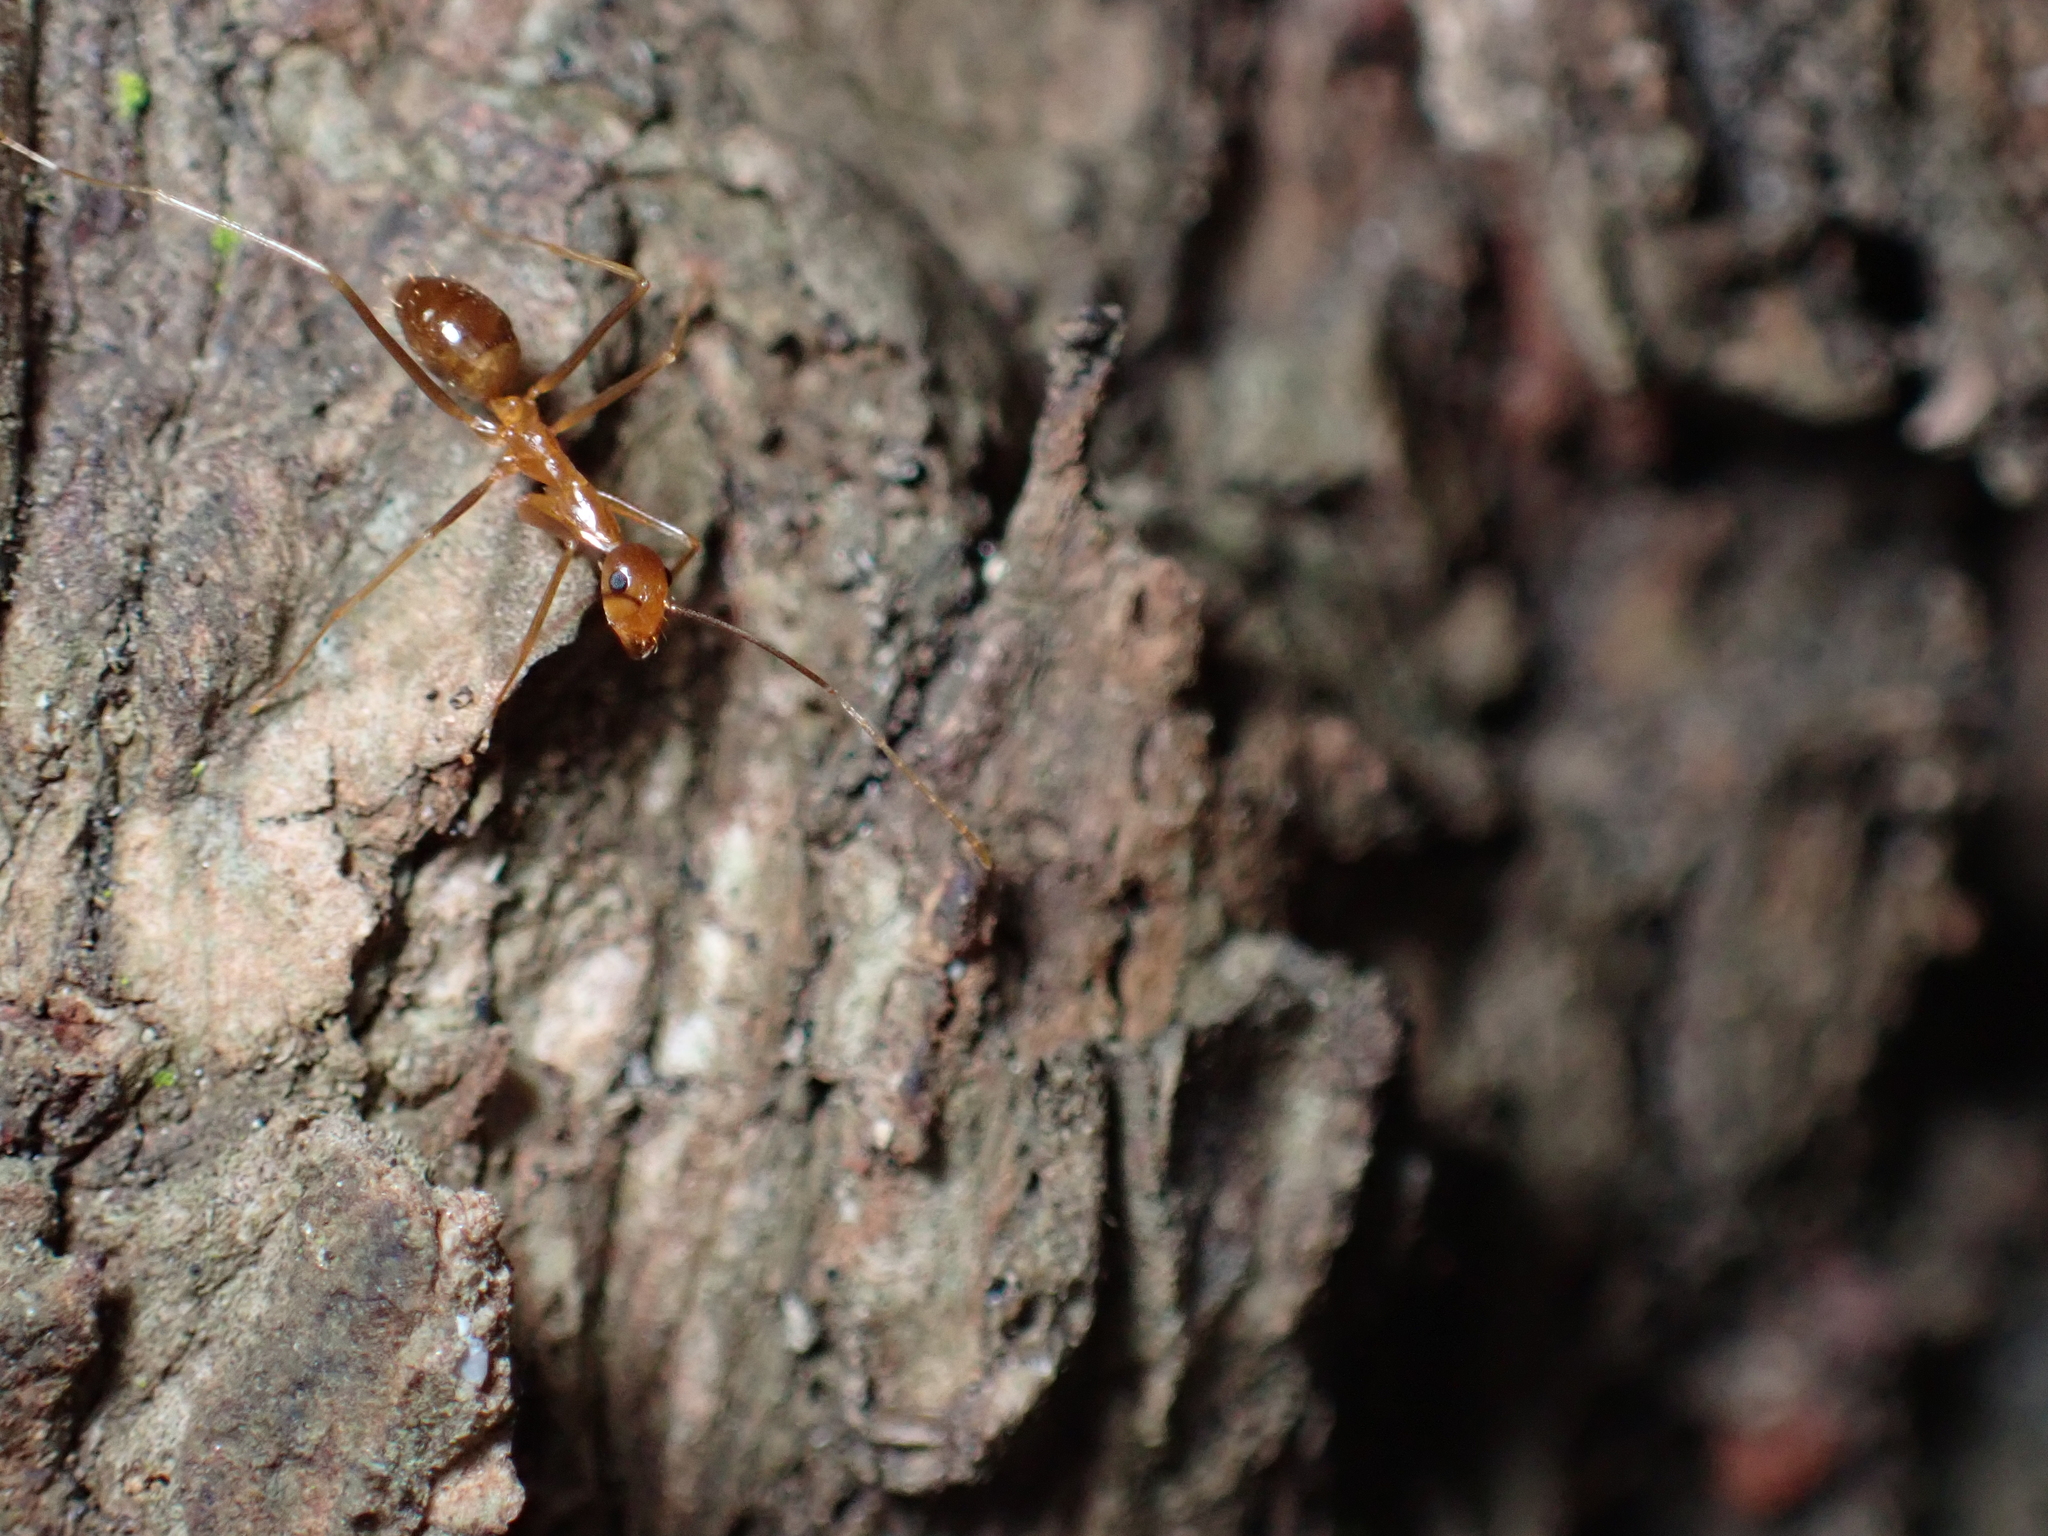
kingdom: Animalia
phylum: Arthropoda
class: Insecta
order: Hymenoptera
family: Formicidae
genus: Anoplolepis
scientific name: Anoplolepis gracilipes
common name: Ant
